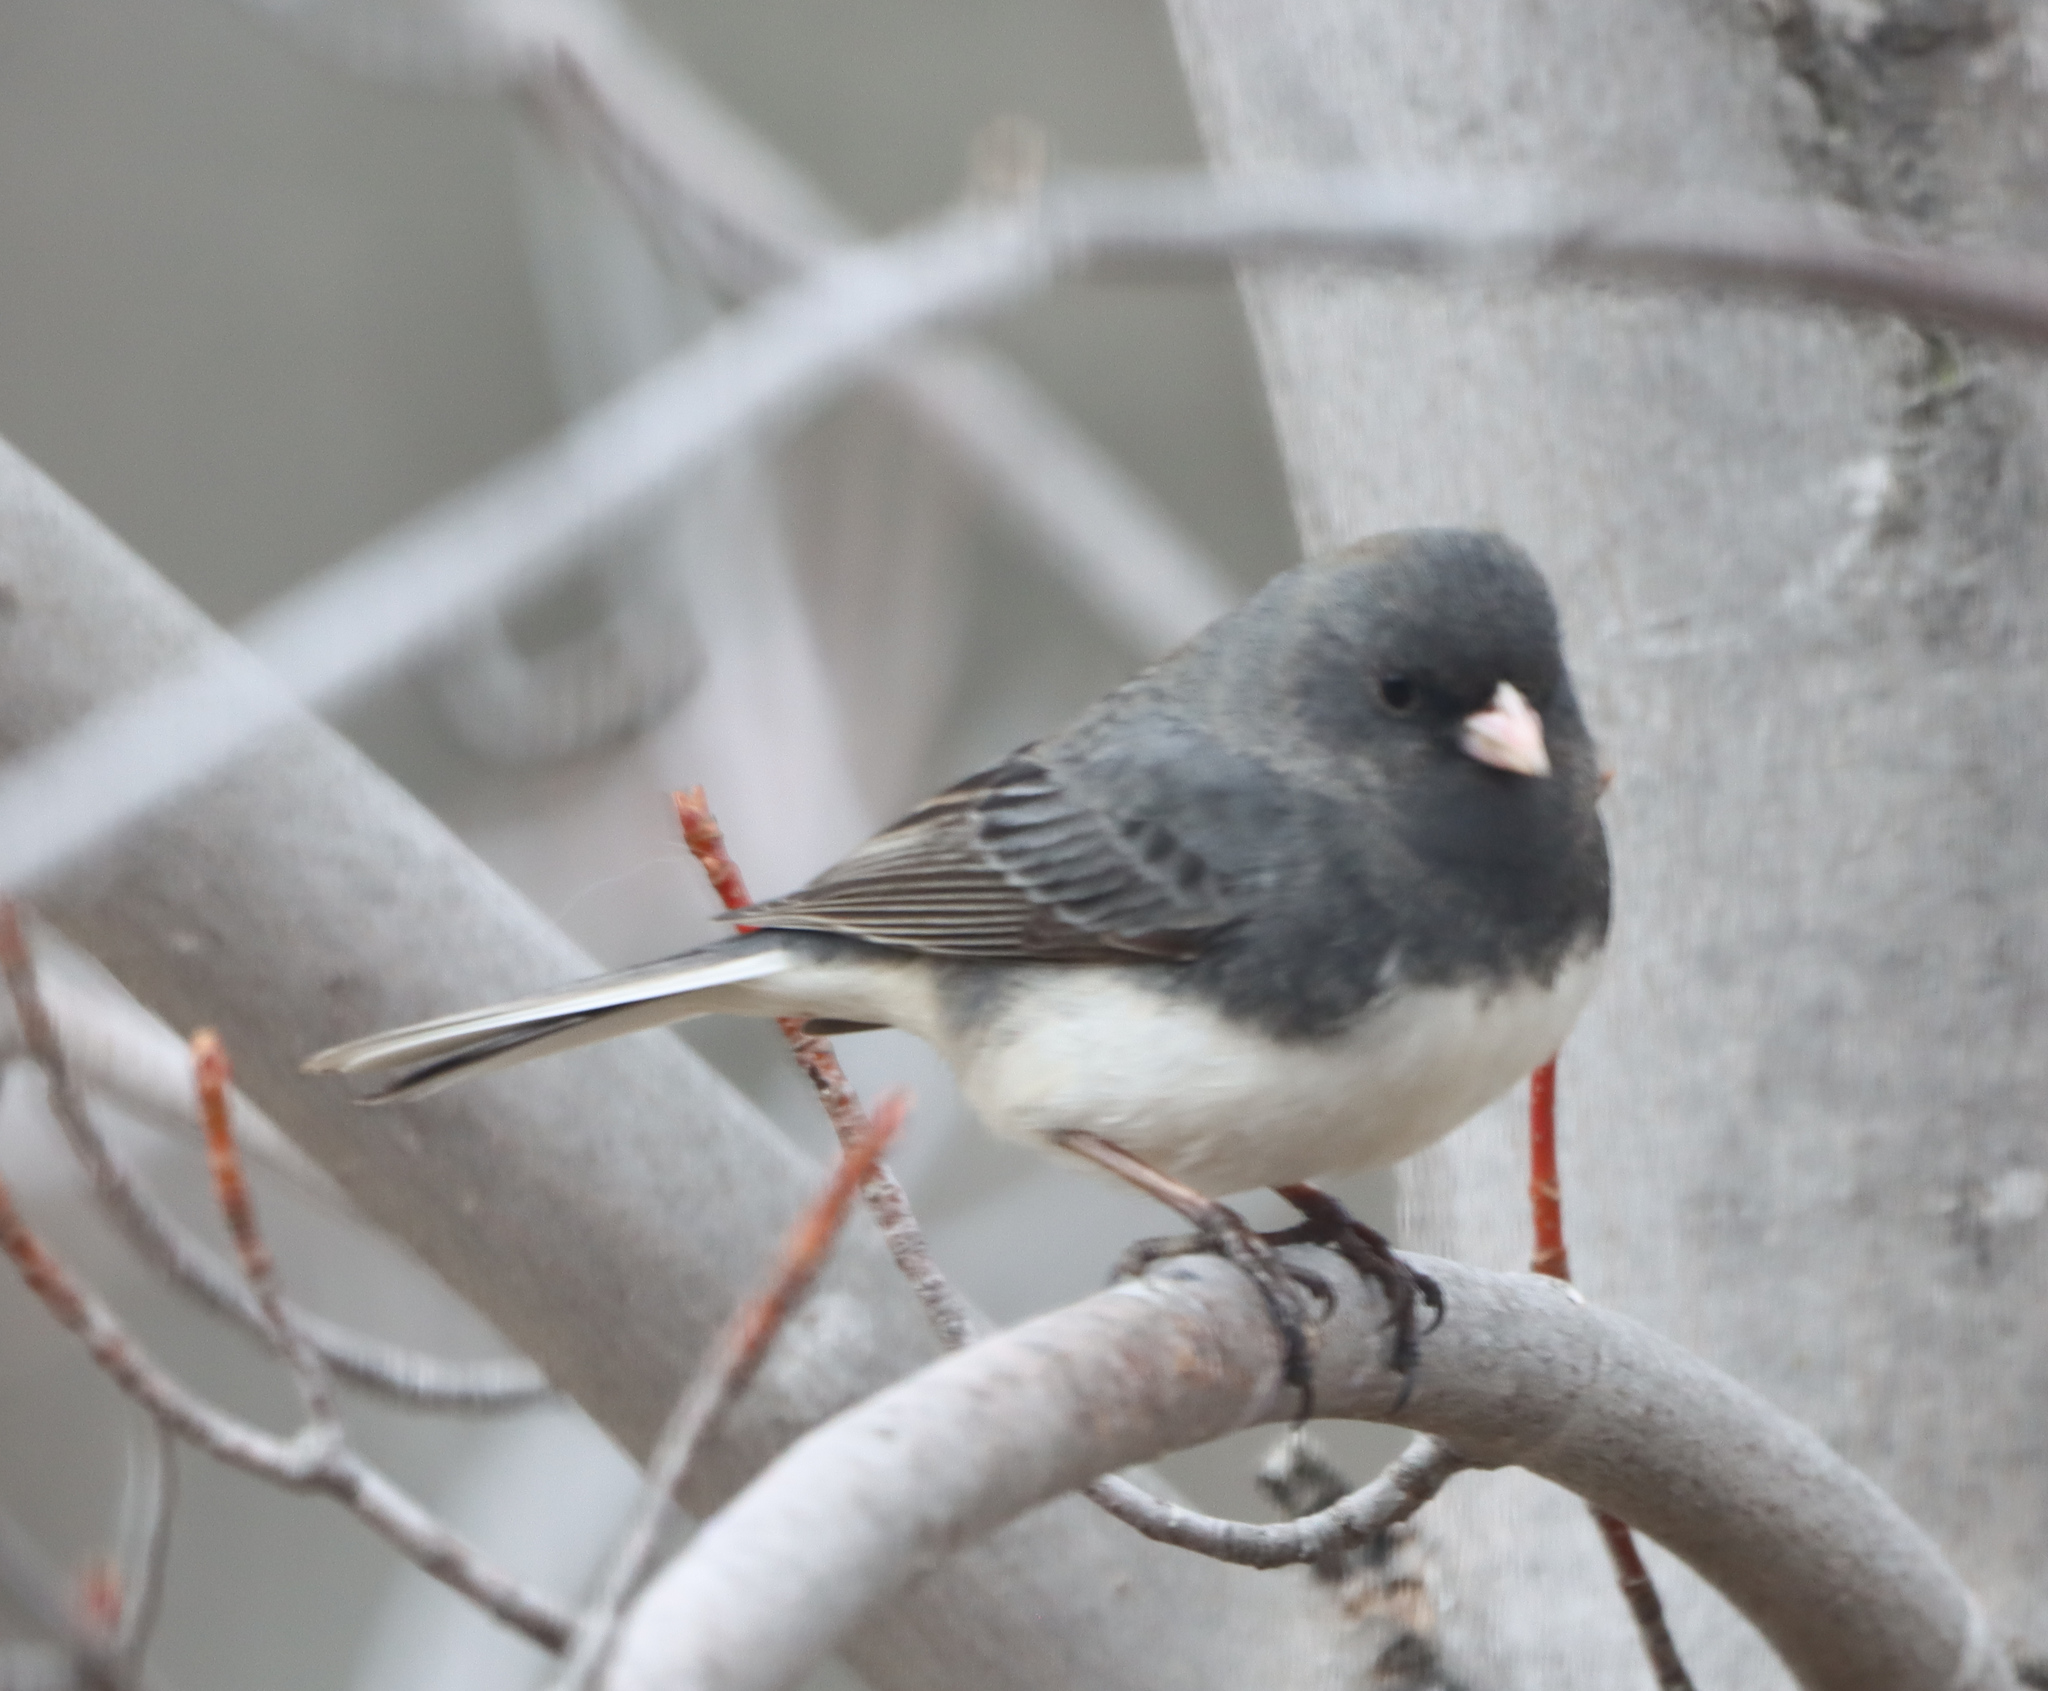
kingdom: Animalia
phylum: Chordata
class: Aves
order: Passeriformes
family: Passerellidae
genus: Junco
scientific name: Junco hyemalis
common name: Dark-eyed junco
